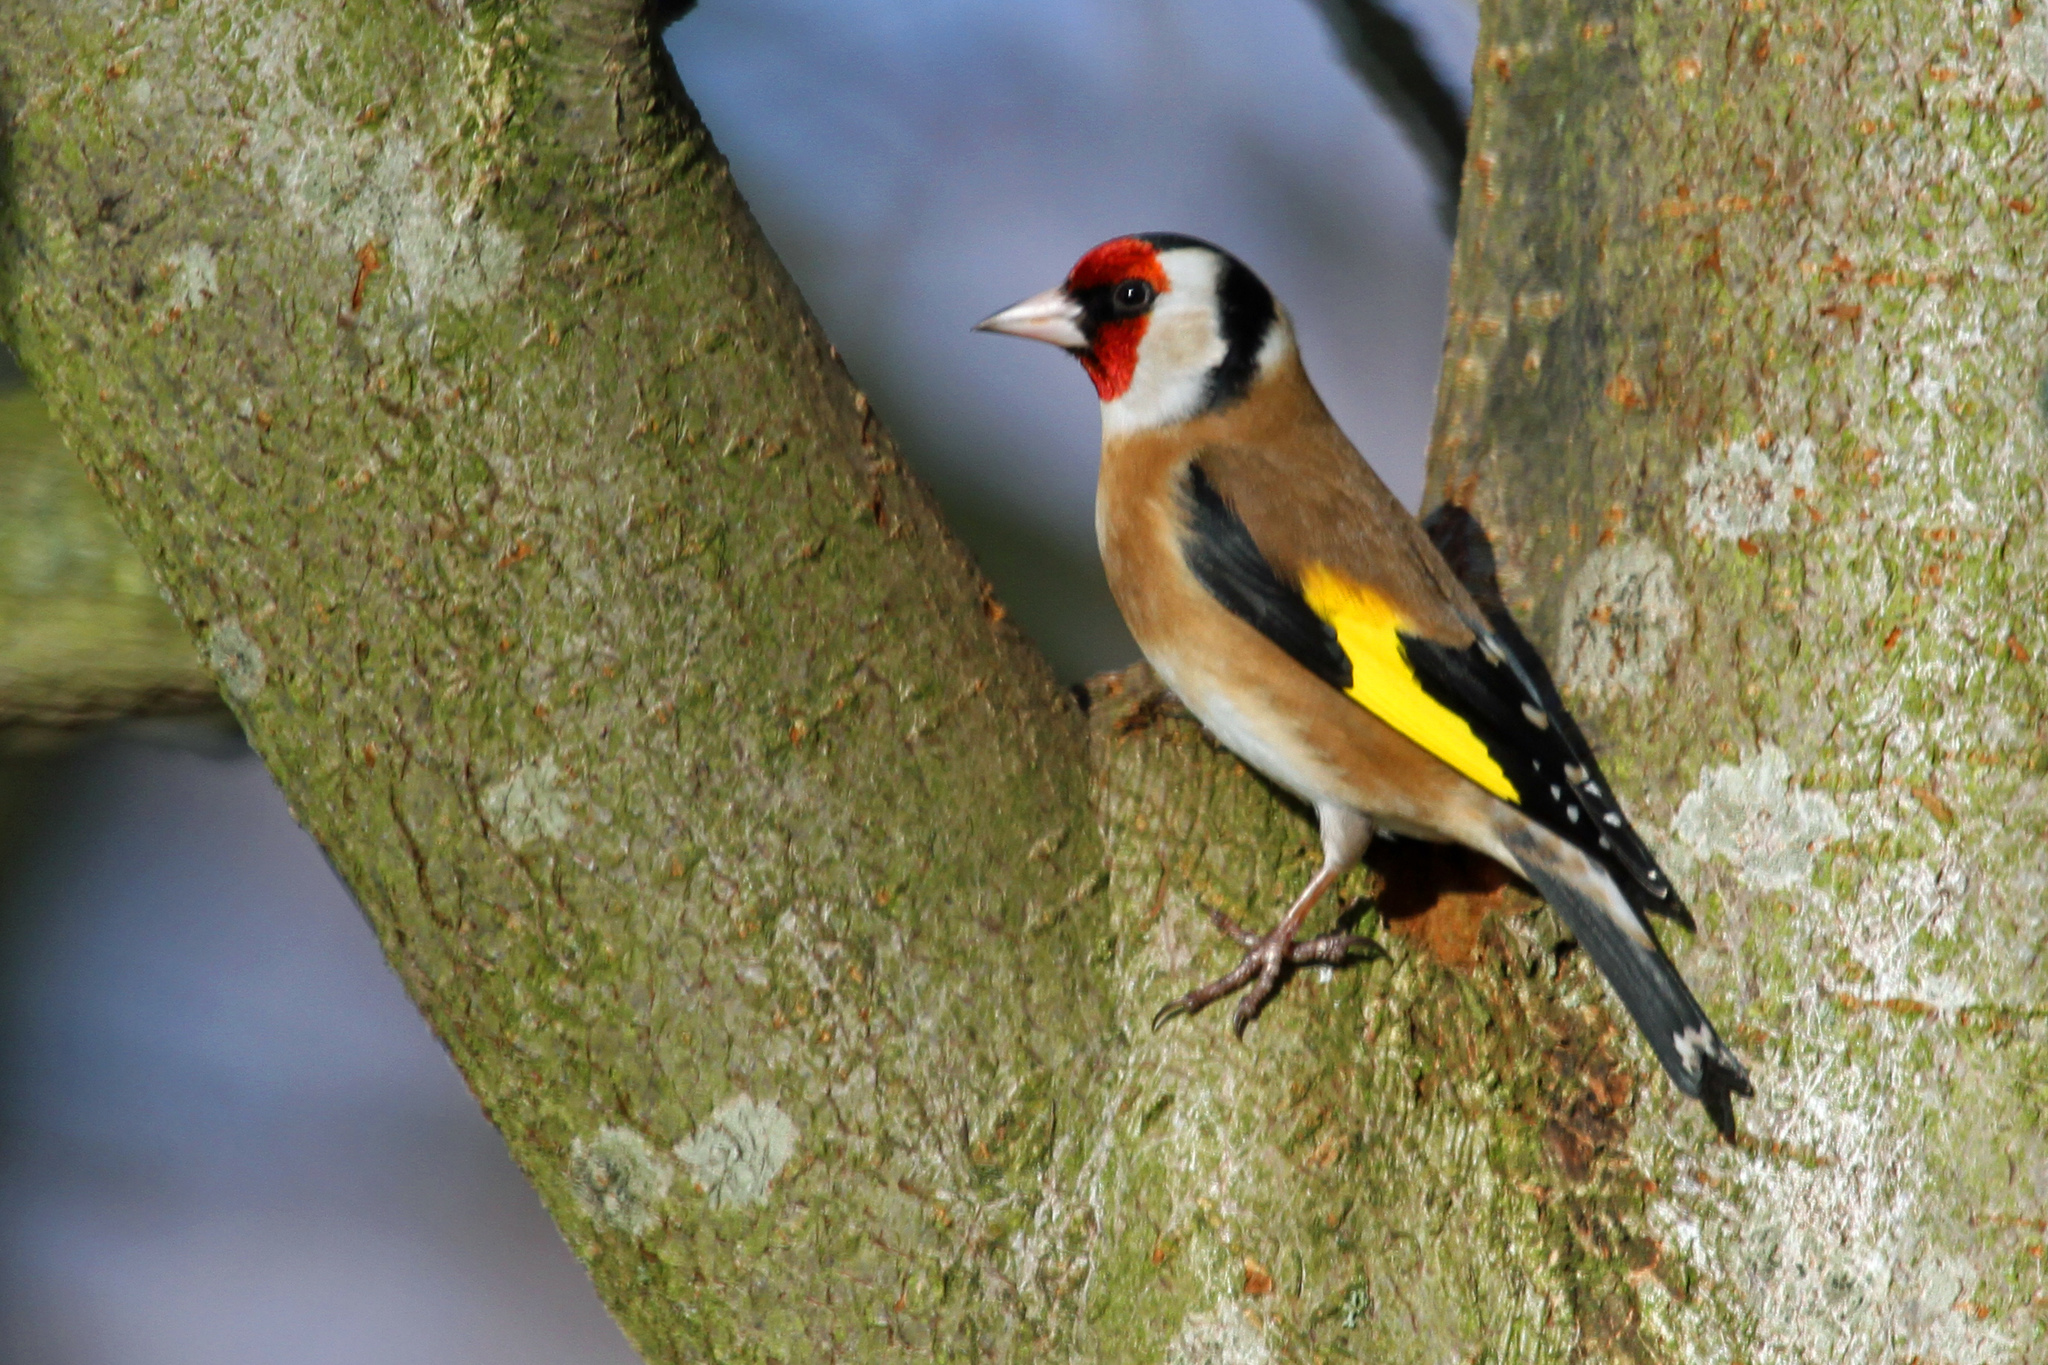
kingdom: Animalia
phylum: Chordata
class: Aves
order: Passeriformes
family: Fringillidae
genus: Carduelis
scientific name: Carduelis carduelis
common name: European goldfinch
